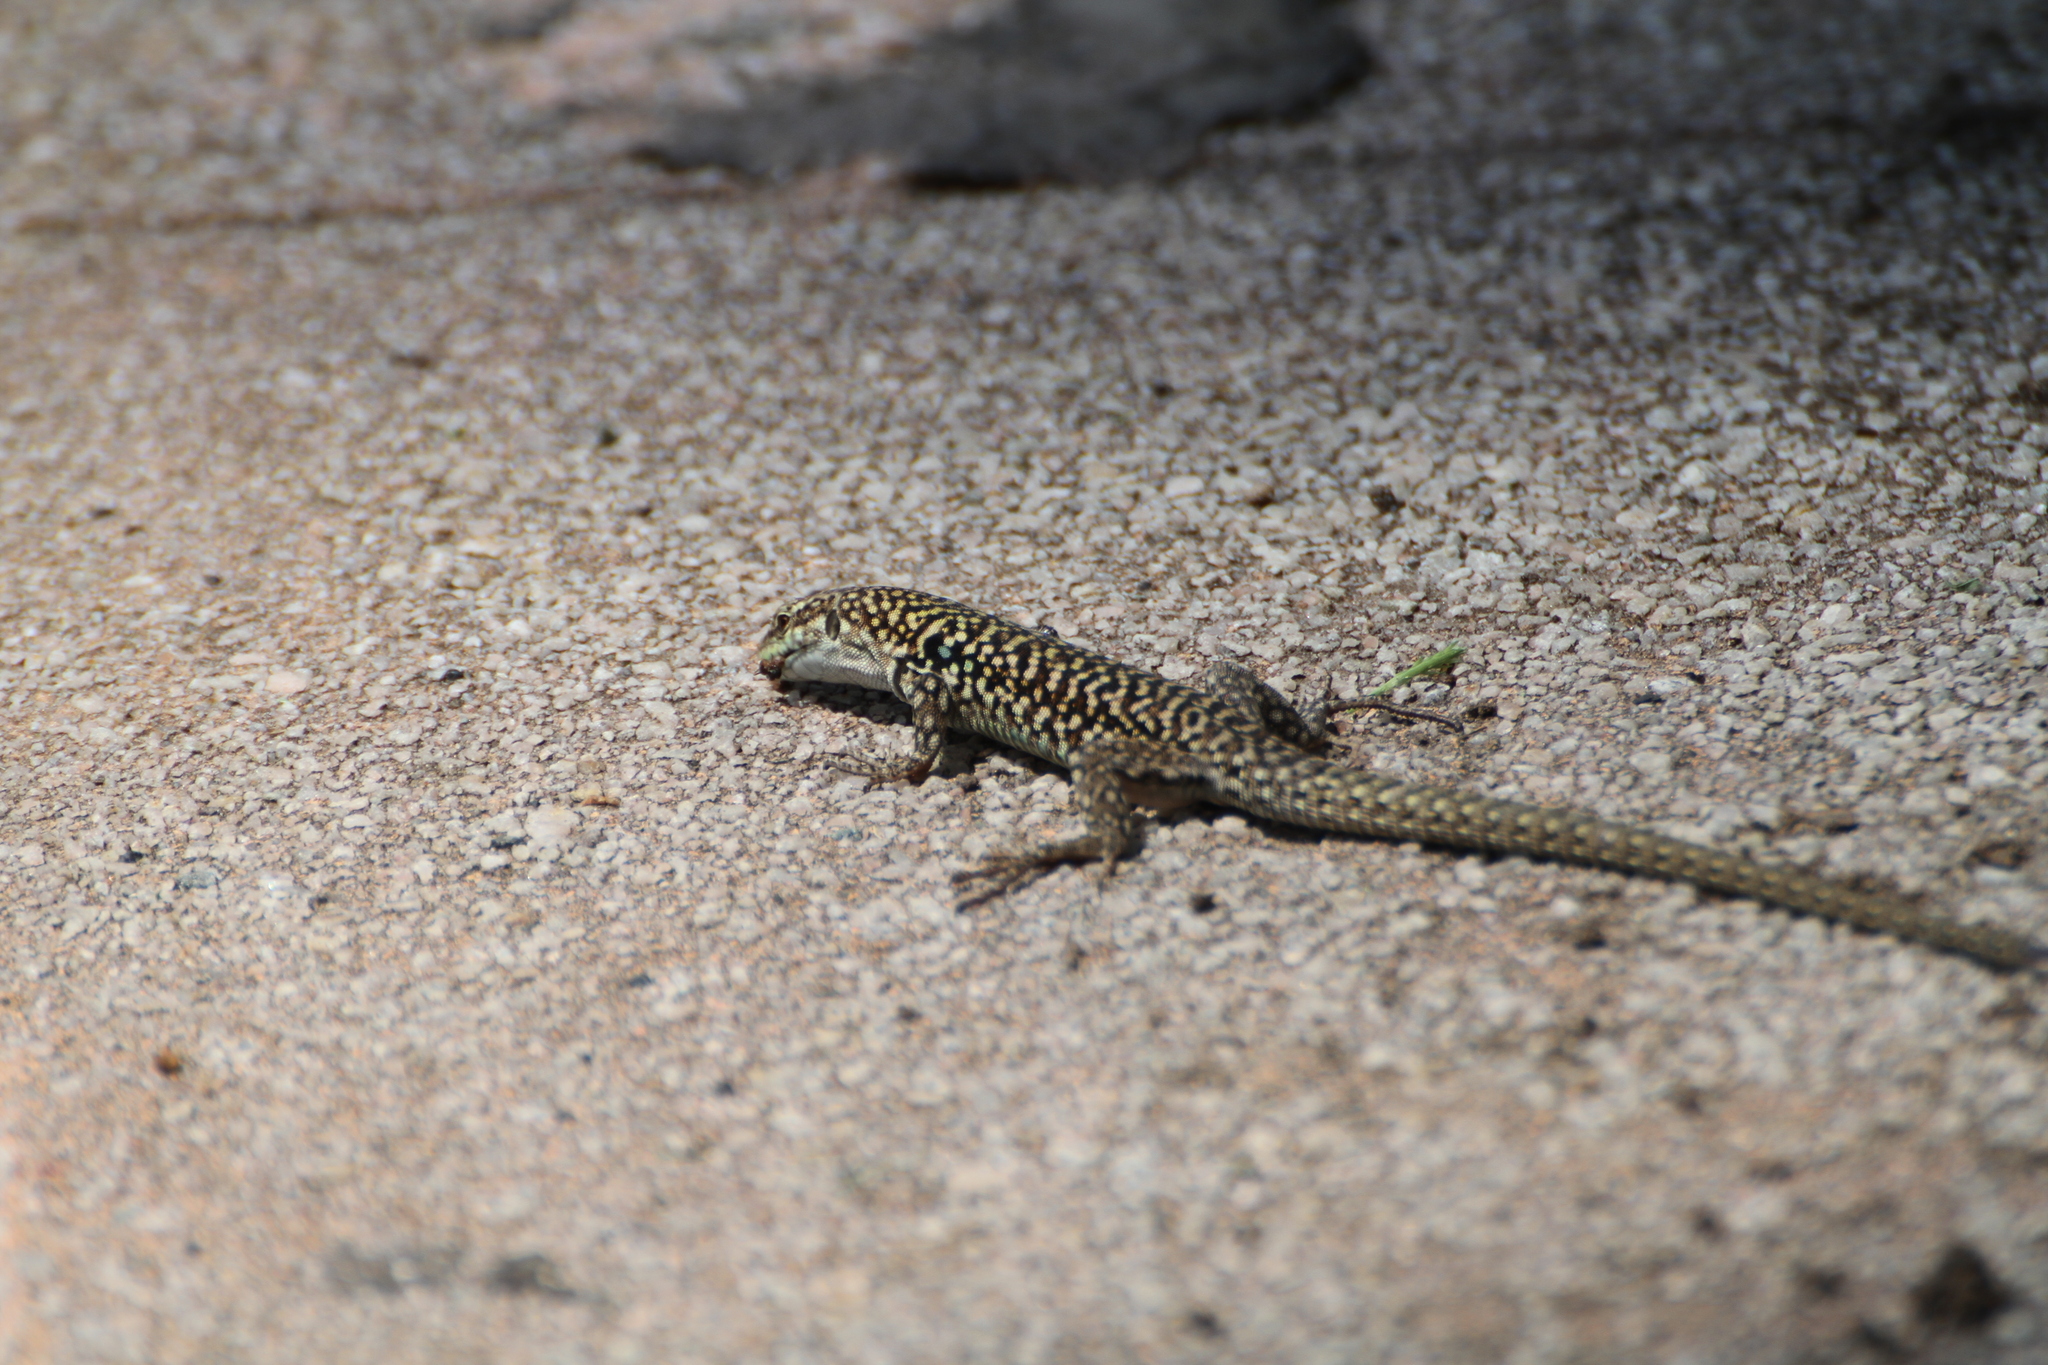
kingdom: Animalia
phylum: Chordata
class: Squamata
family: Lacertidae
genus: Podarcis
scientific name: Podarcis siculus
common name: Italian wall lizard
